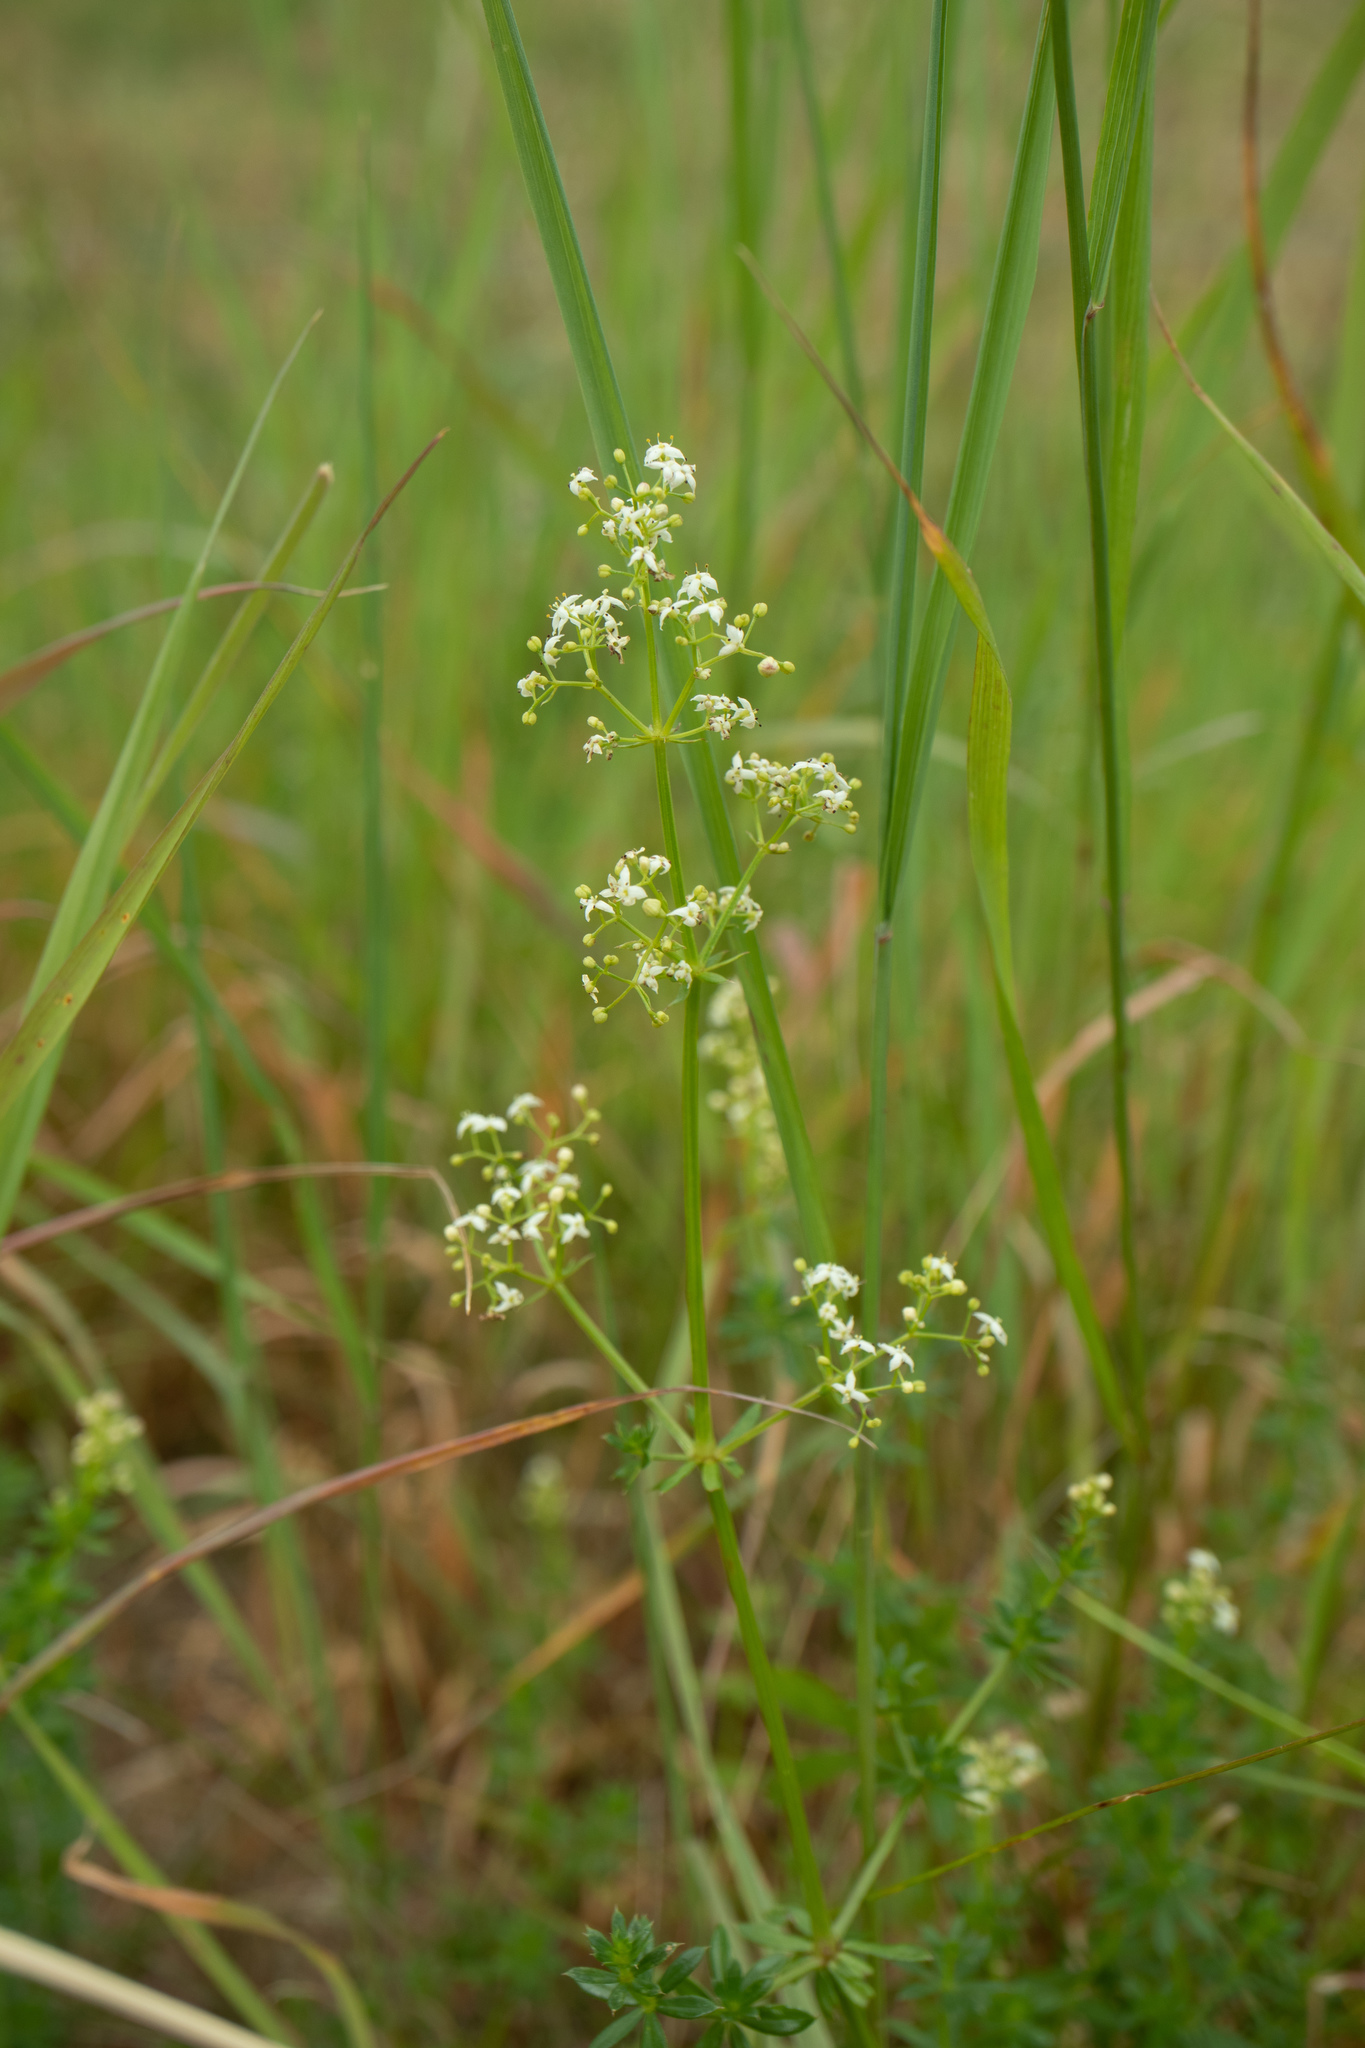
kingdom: Plantae
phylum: Tracheophyta
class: Magnoliopsida
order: Gentianales
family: Rubiaceae
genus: Galium
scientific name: Galium mollugo
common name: Hedge bedstraw
